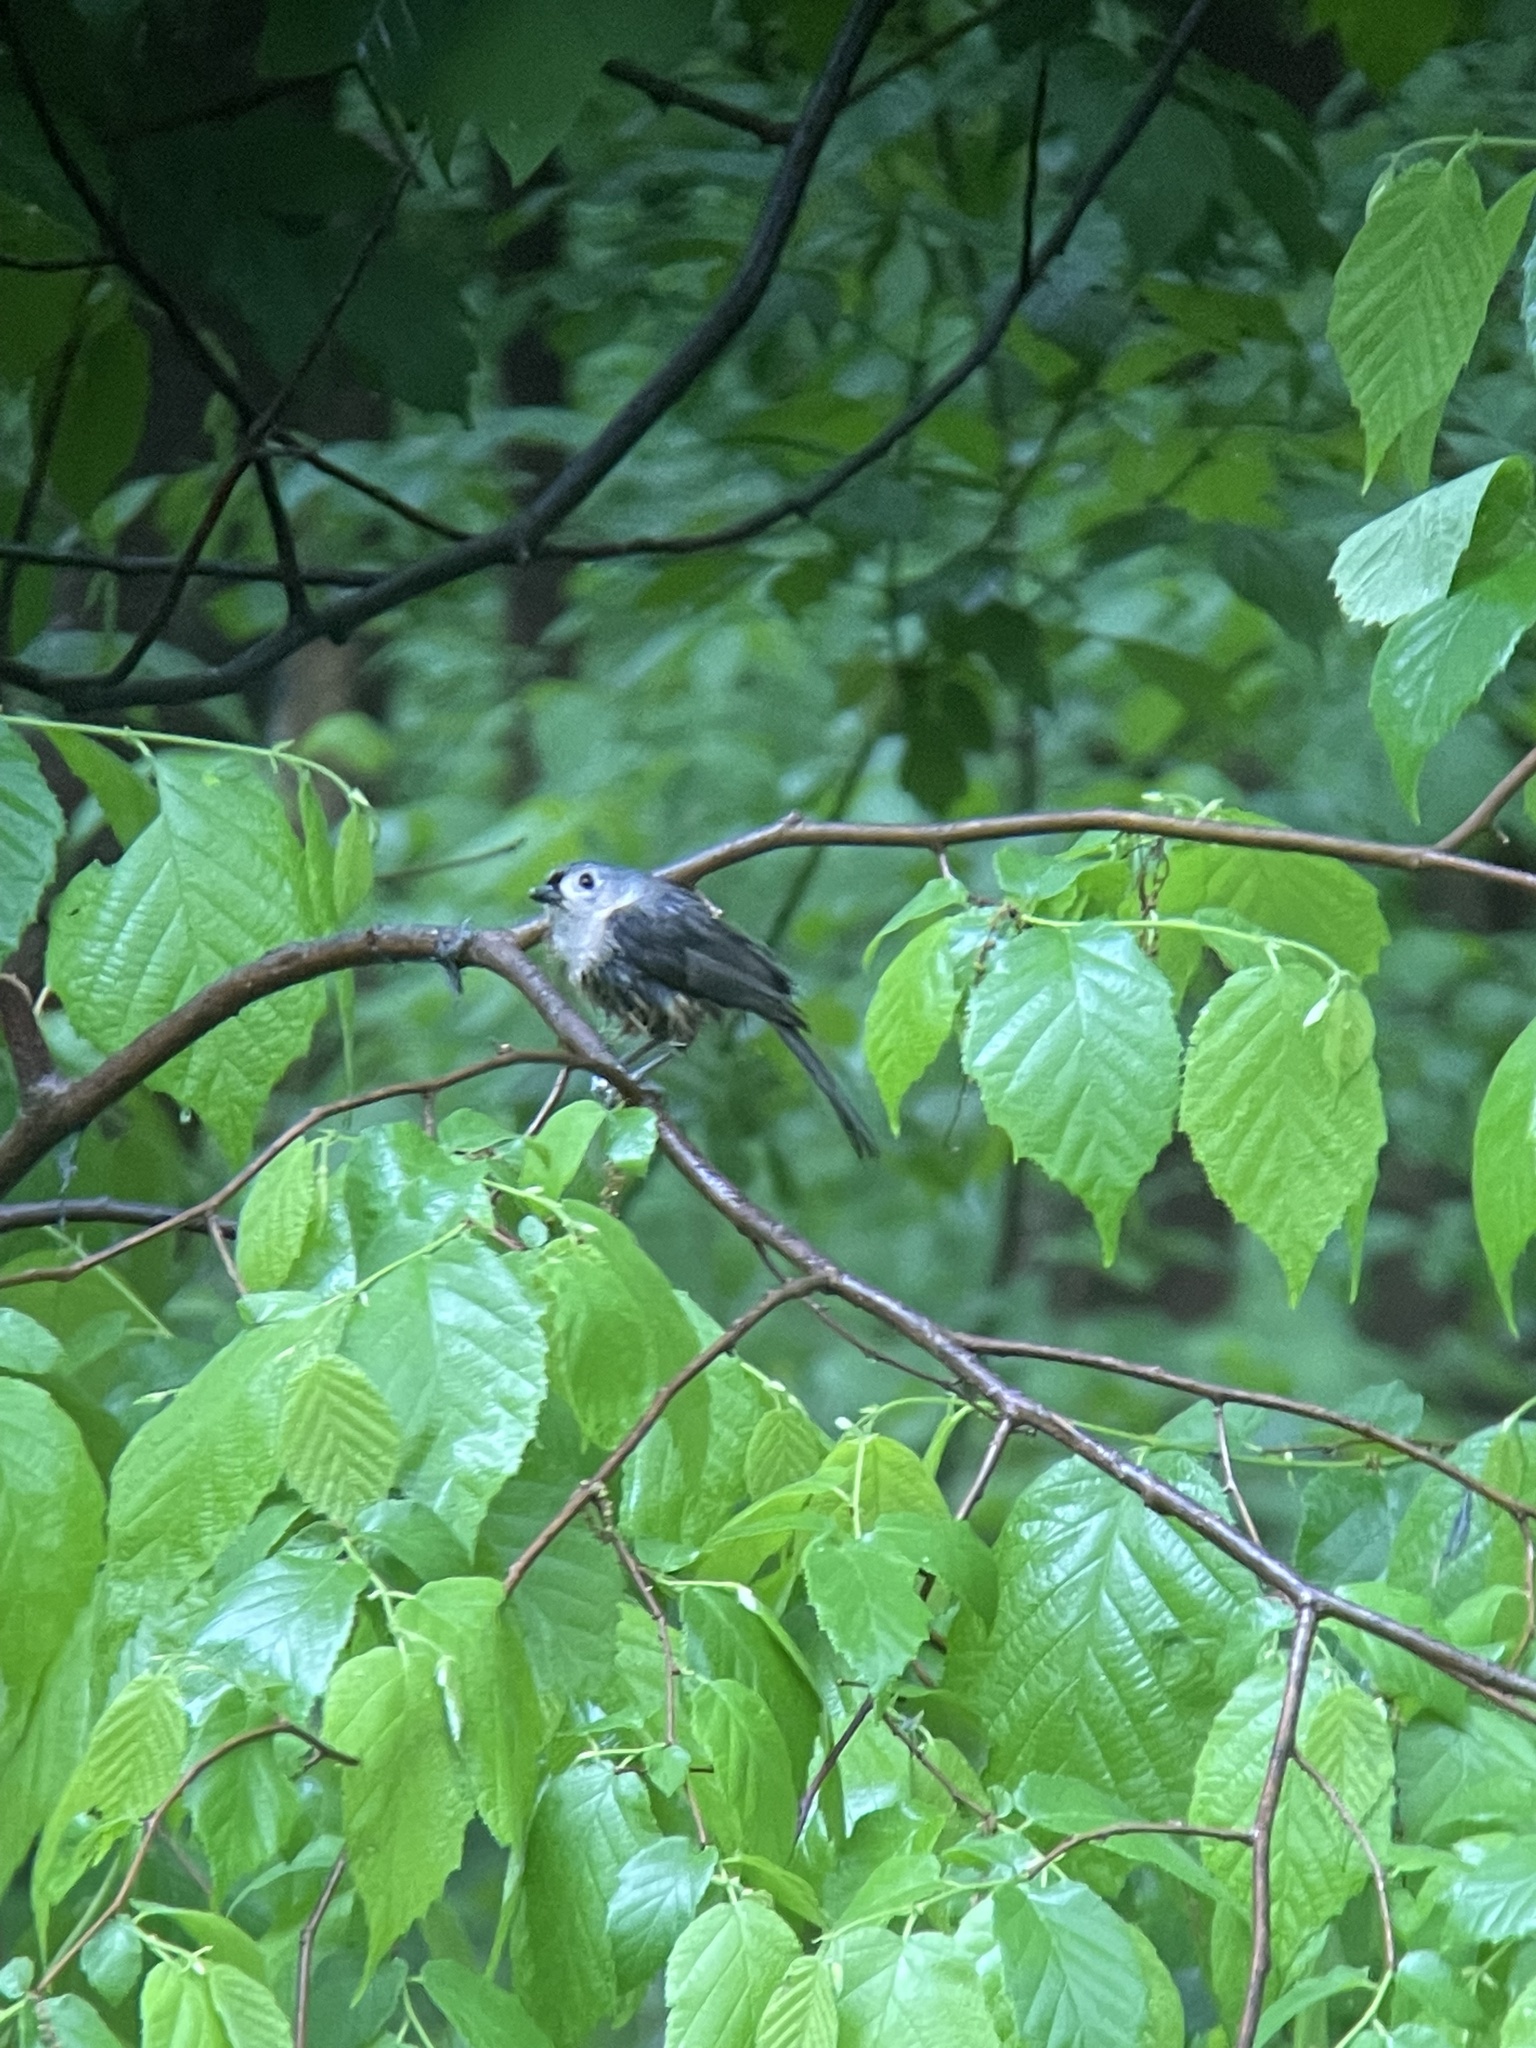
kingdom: Animalia
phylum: Chordata
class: Aves
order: Passeriformes
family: Paridae
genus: Baeolophus
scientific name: Baeolophus bicolor
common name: Tufted titmouse
